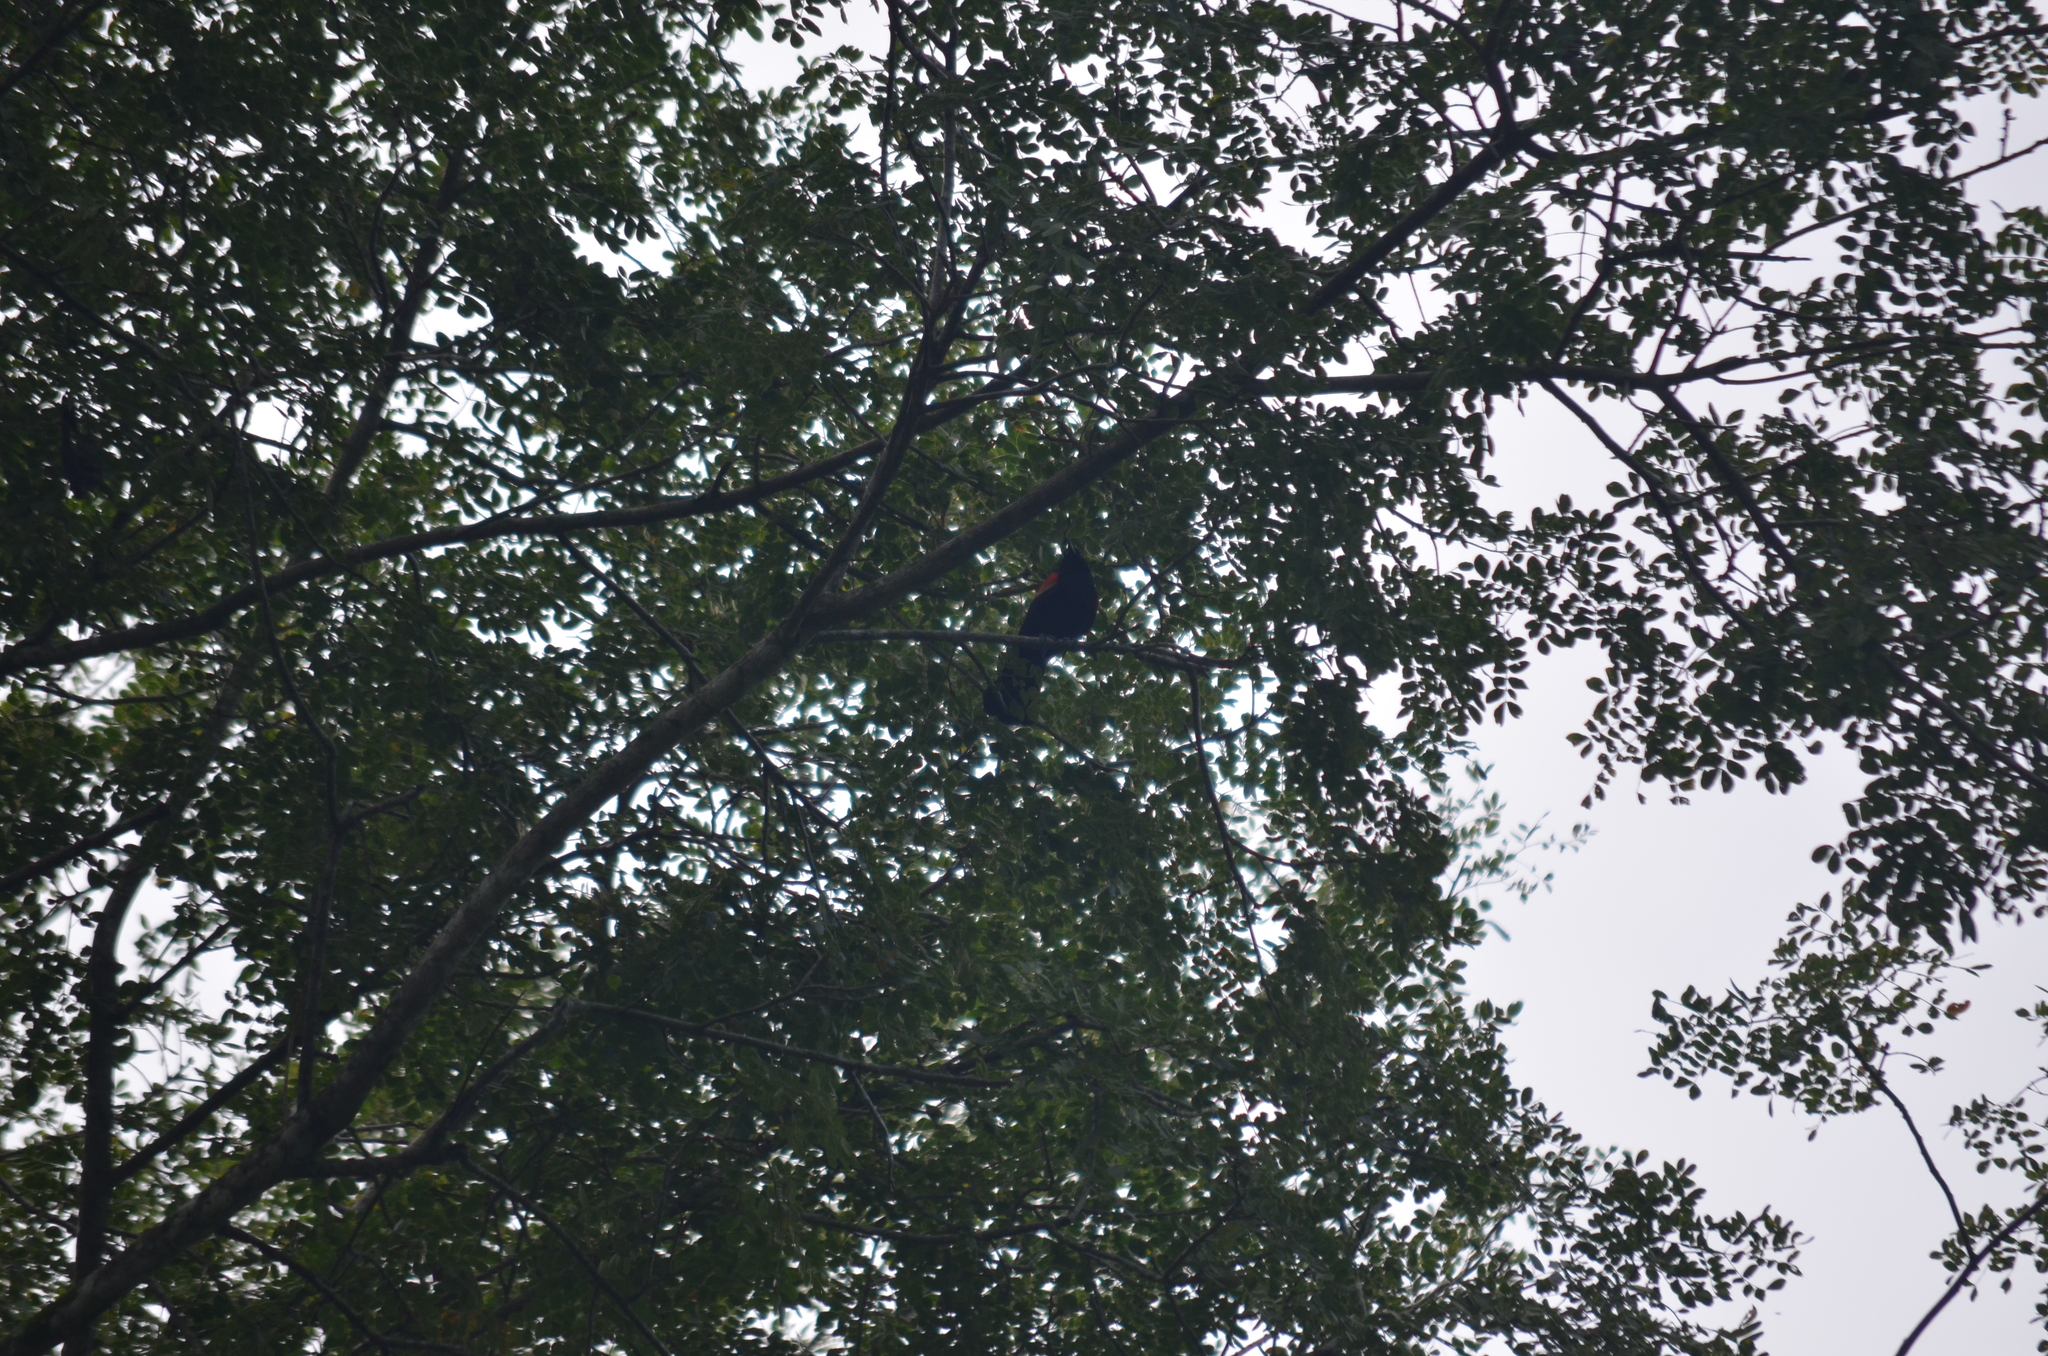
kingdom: Animalia
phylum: Chordata
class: Aves
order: Passeriformes
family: Icteridae
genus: Agelaius
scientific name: Agelaius phoeniceus
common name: Red-winged blackbird
